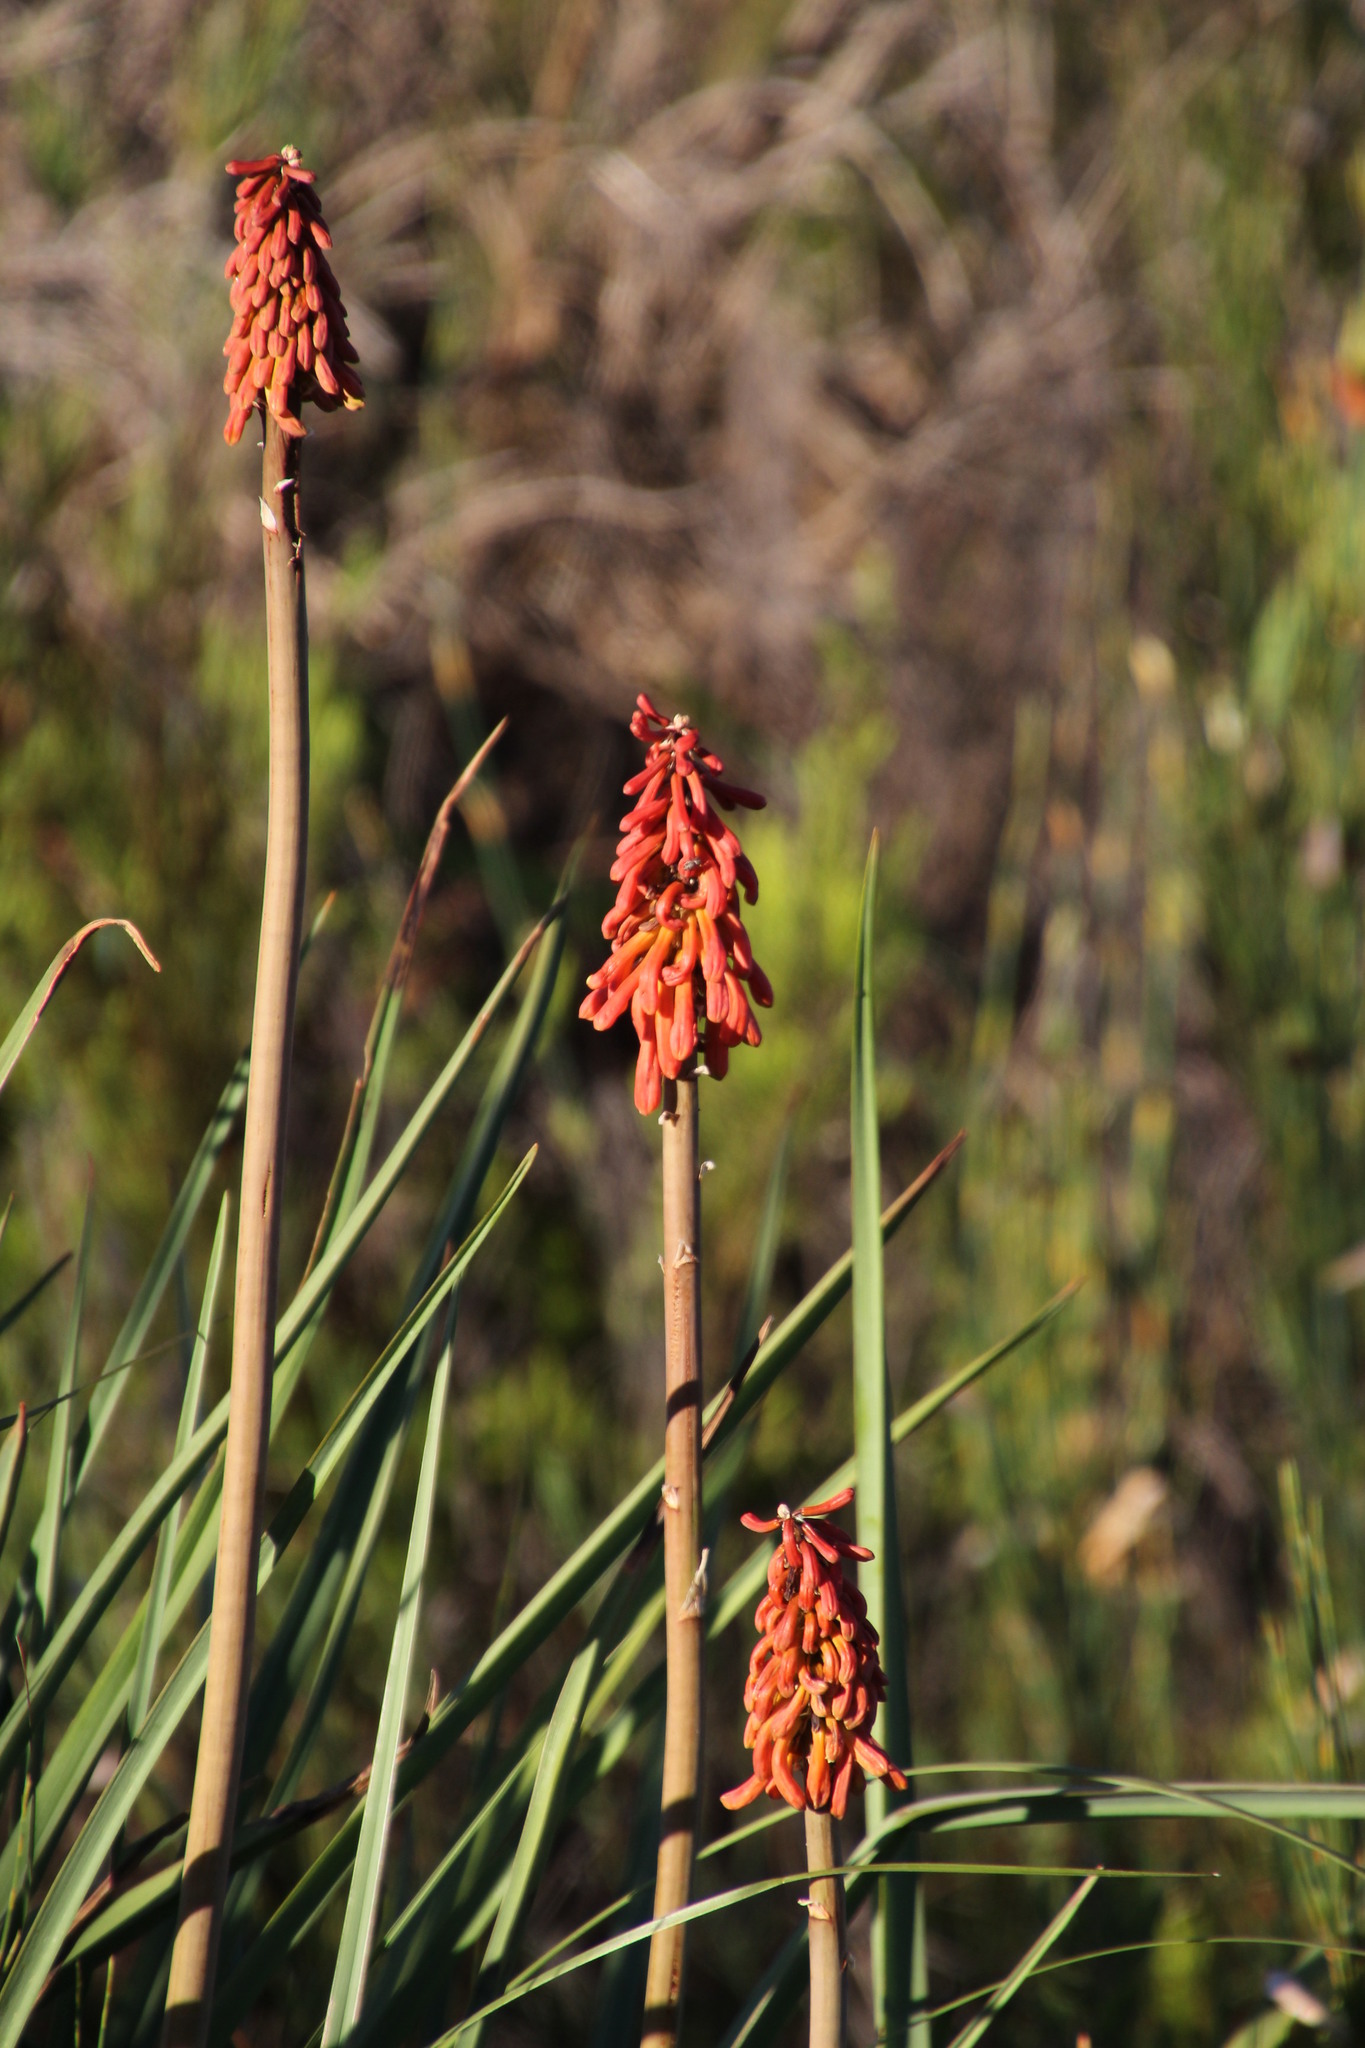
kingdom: Plantae
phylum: Tracheophyta
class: Liliopsida
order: Asparagales
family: Asphodelaceae
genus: Kniphofia
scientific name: Kniphofia uvaria
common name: Red-hot-poker
